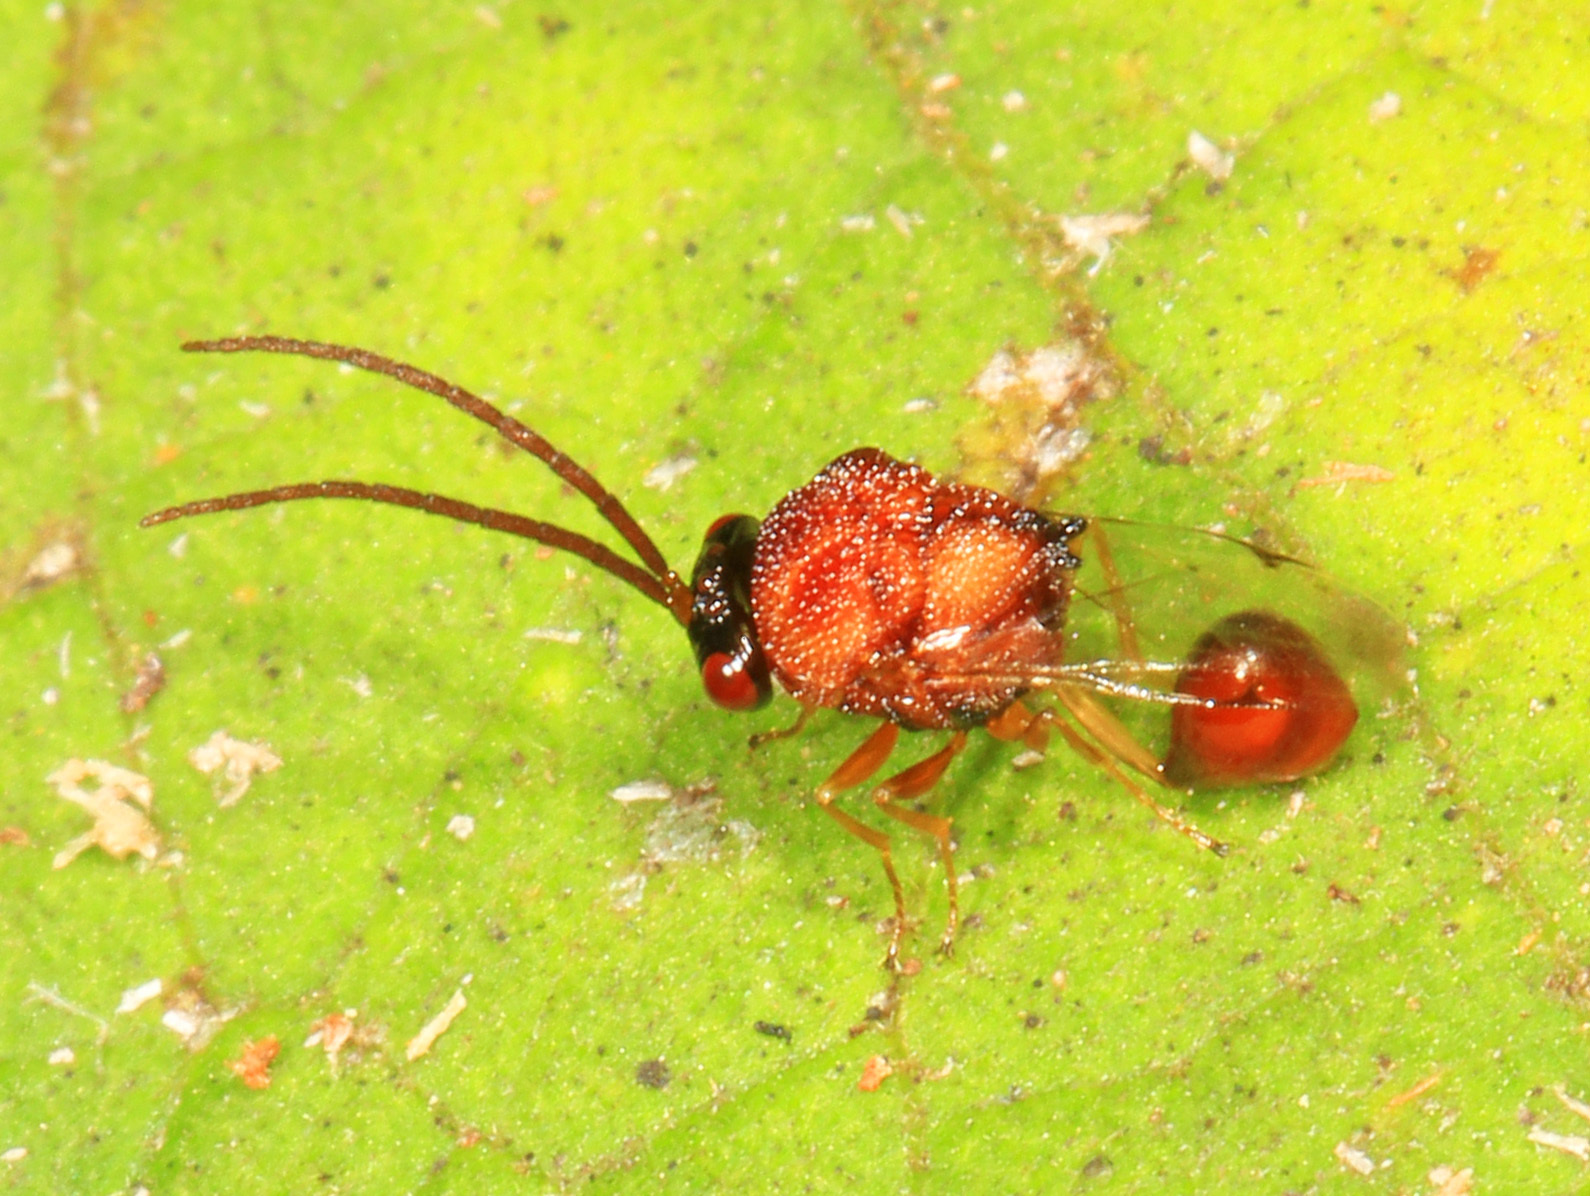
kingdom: Animalia
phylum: Arthropoda
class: Insecta
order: Hymenoptera
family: Eucharitidae
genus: Obeza
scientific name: Obeza floridana
